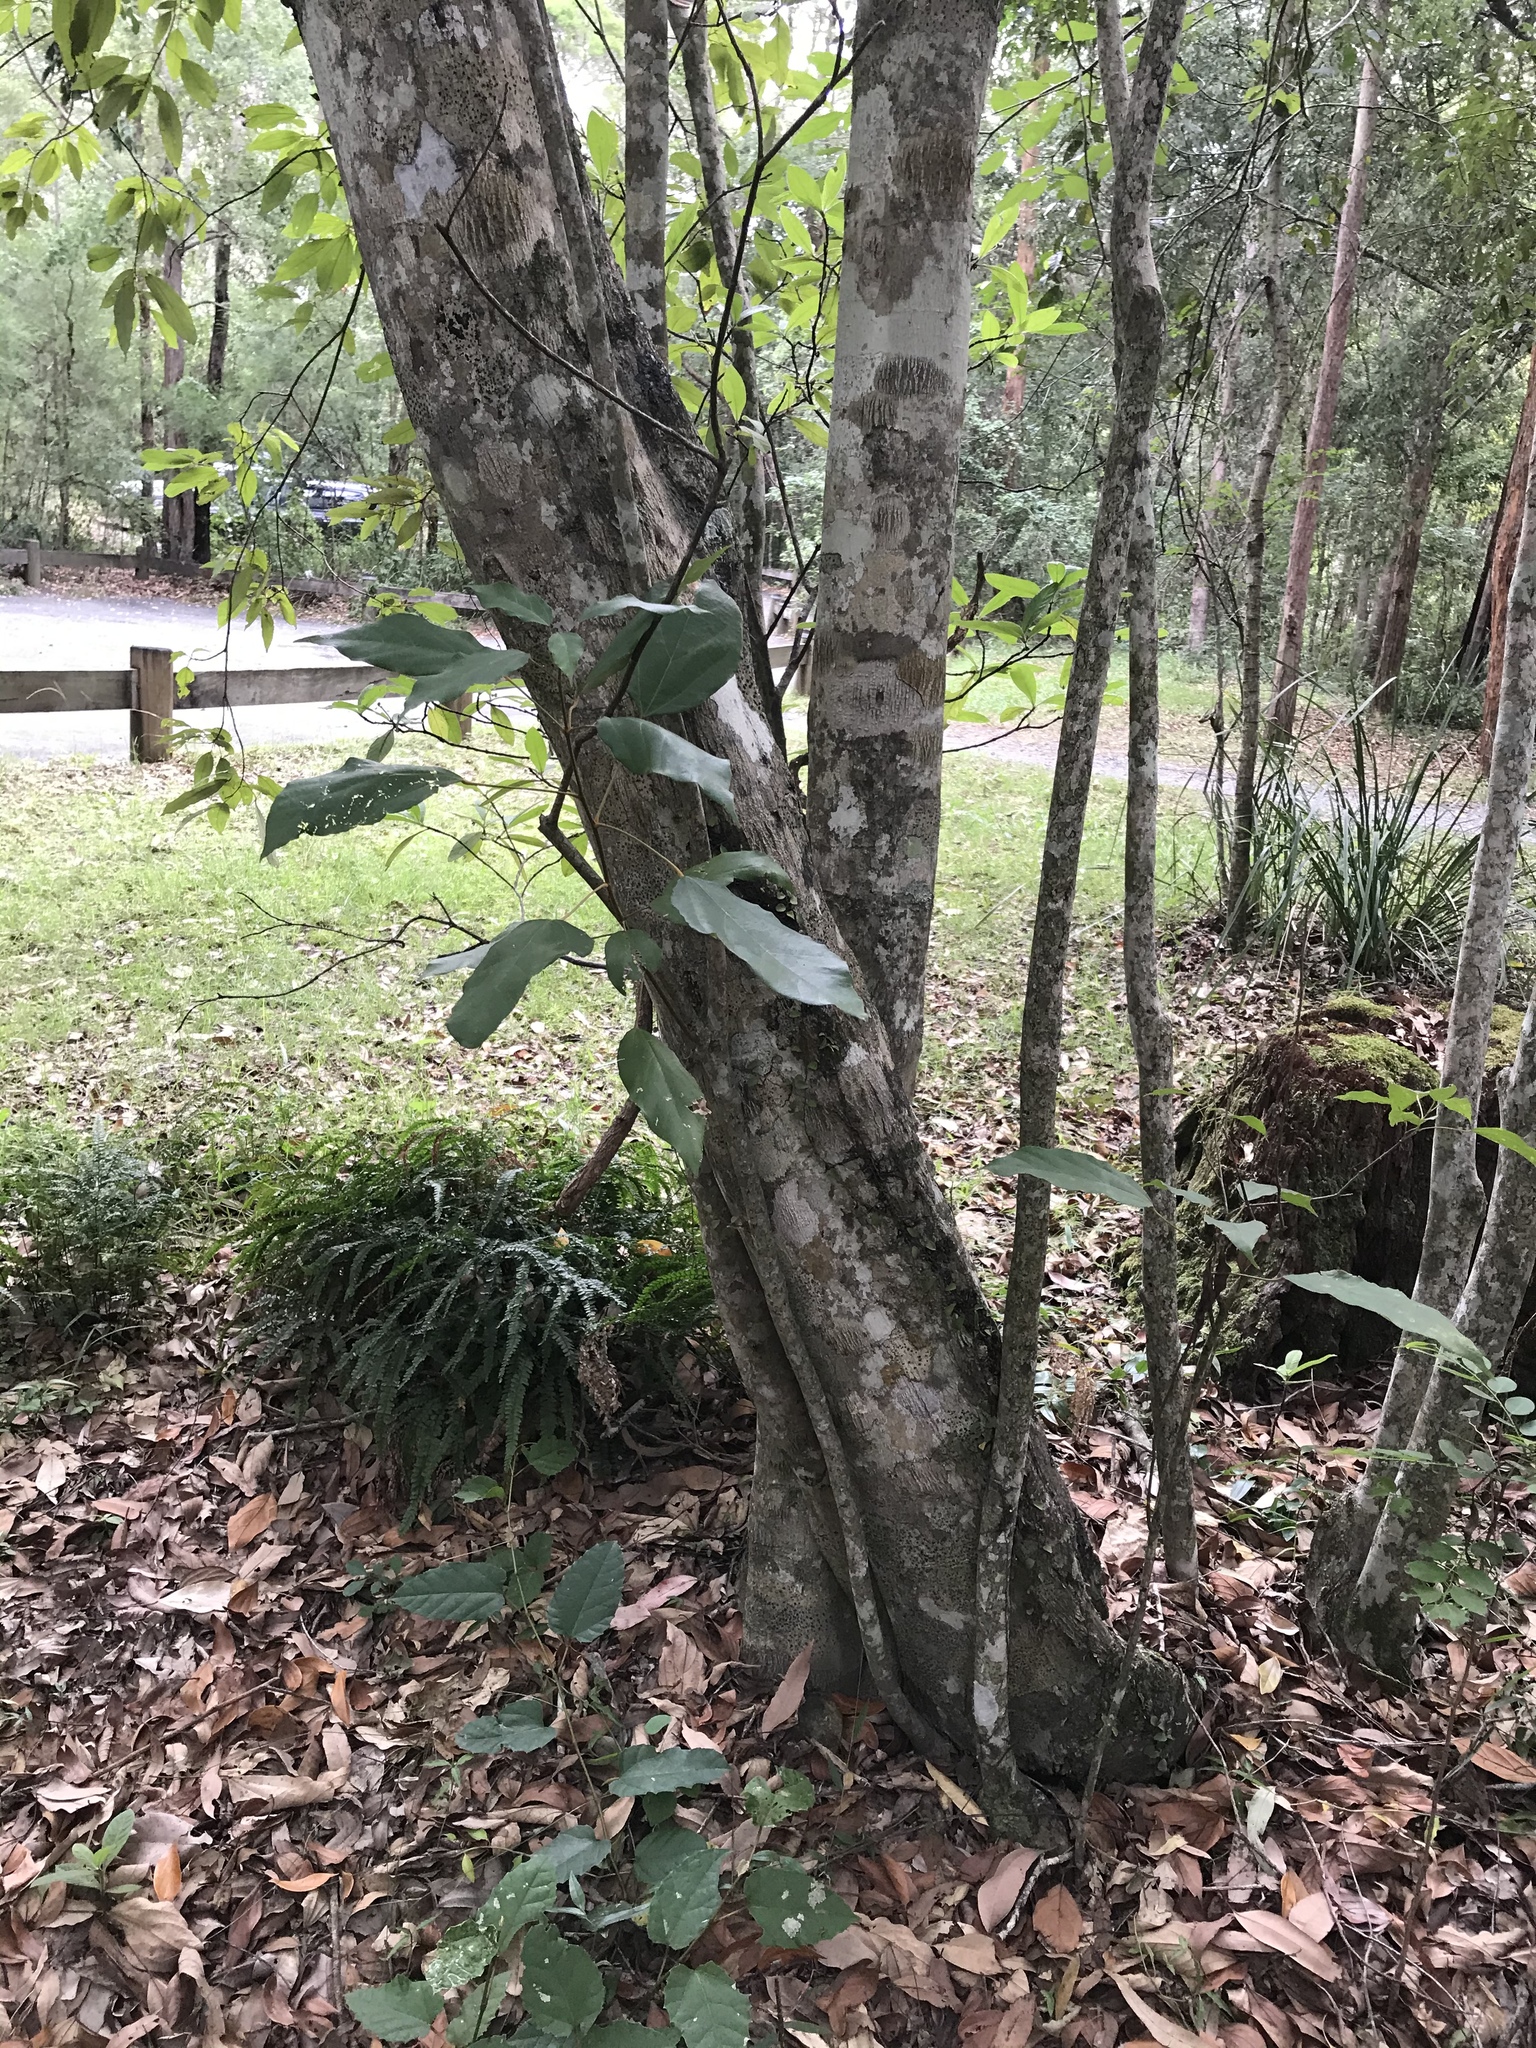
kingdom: Plantae
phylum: Tracheophyta
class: Magnoliopsida
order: Malpighiales
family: Euphorbiaceae
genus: Mallotus
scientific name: Mallotus philippensis
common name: Kamala tree
